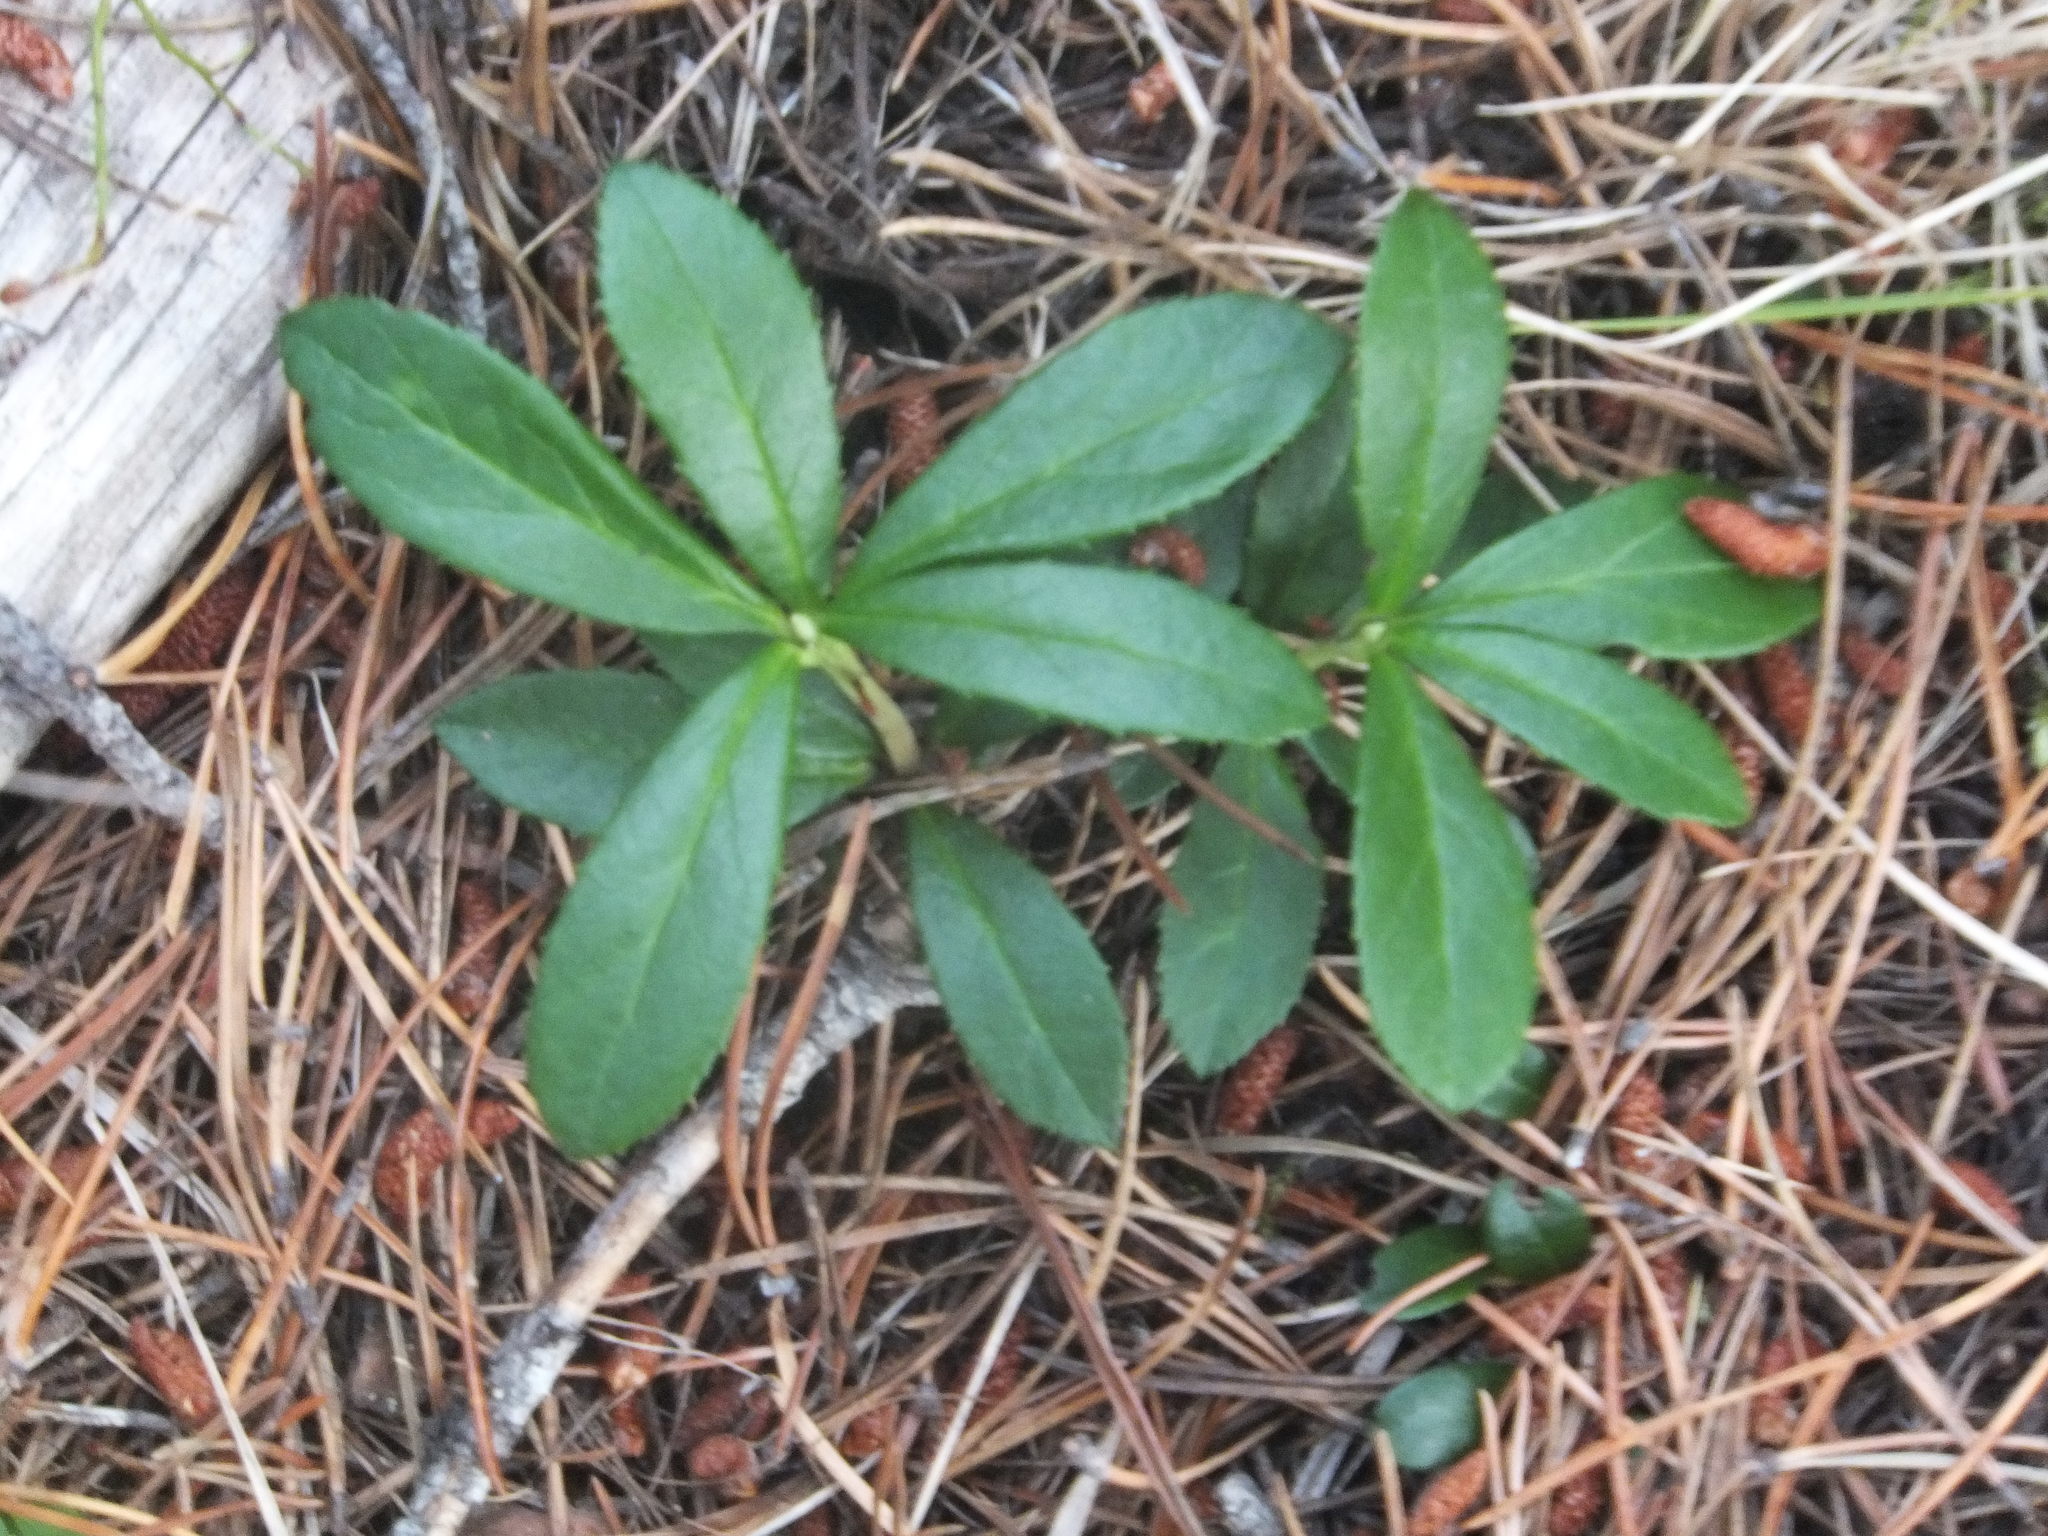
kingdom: Plantae
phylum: Tracheophyta
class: Magnoliopsida
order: Ericales
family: Ericaceae
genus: Chimaphila
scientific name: Chimaphila umbellata
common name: Pipsissewa
